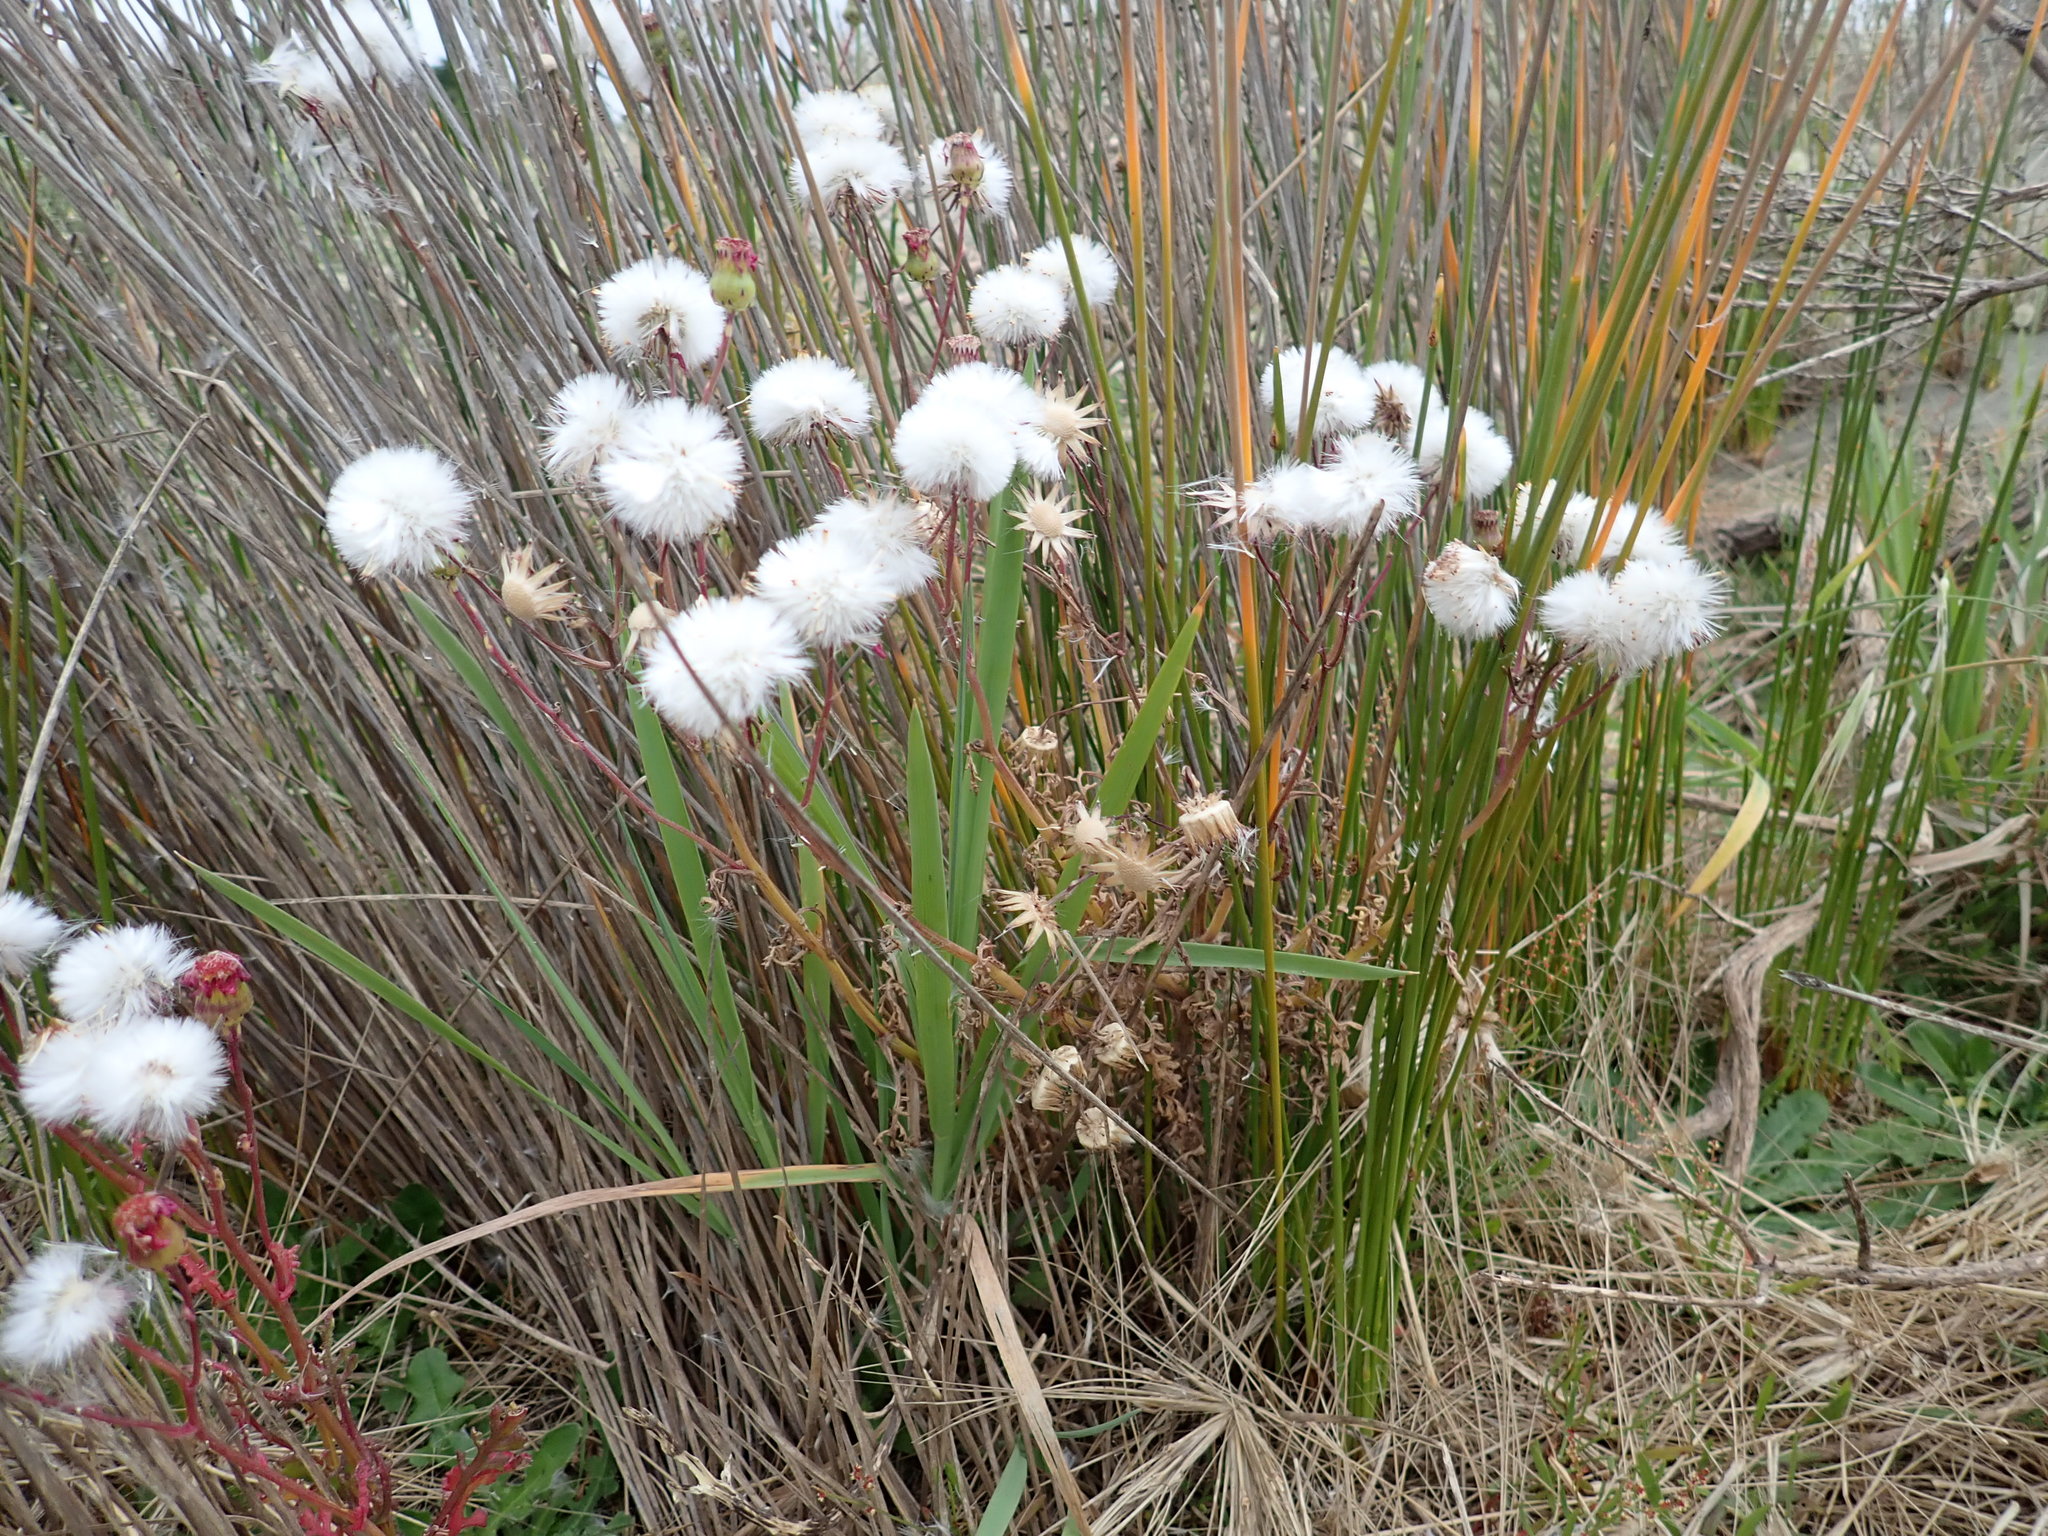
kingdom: Plantae
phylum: Tracheophyta
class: Magnoliopsida
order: Asterales
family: Asteraceae
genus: Senecio
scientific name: Senecio elegans
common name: Purple groundsel
